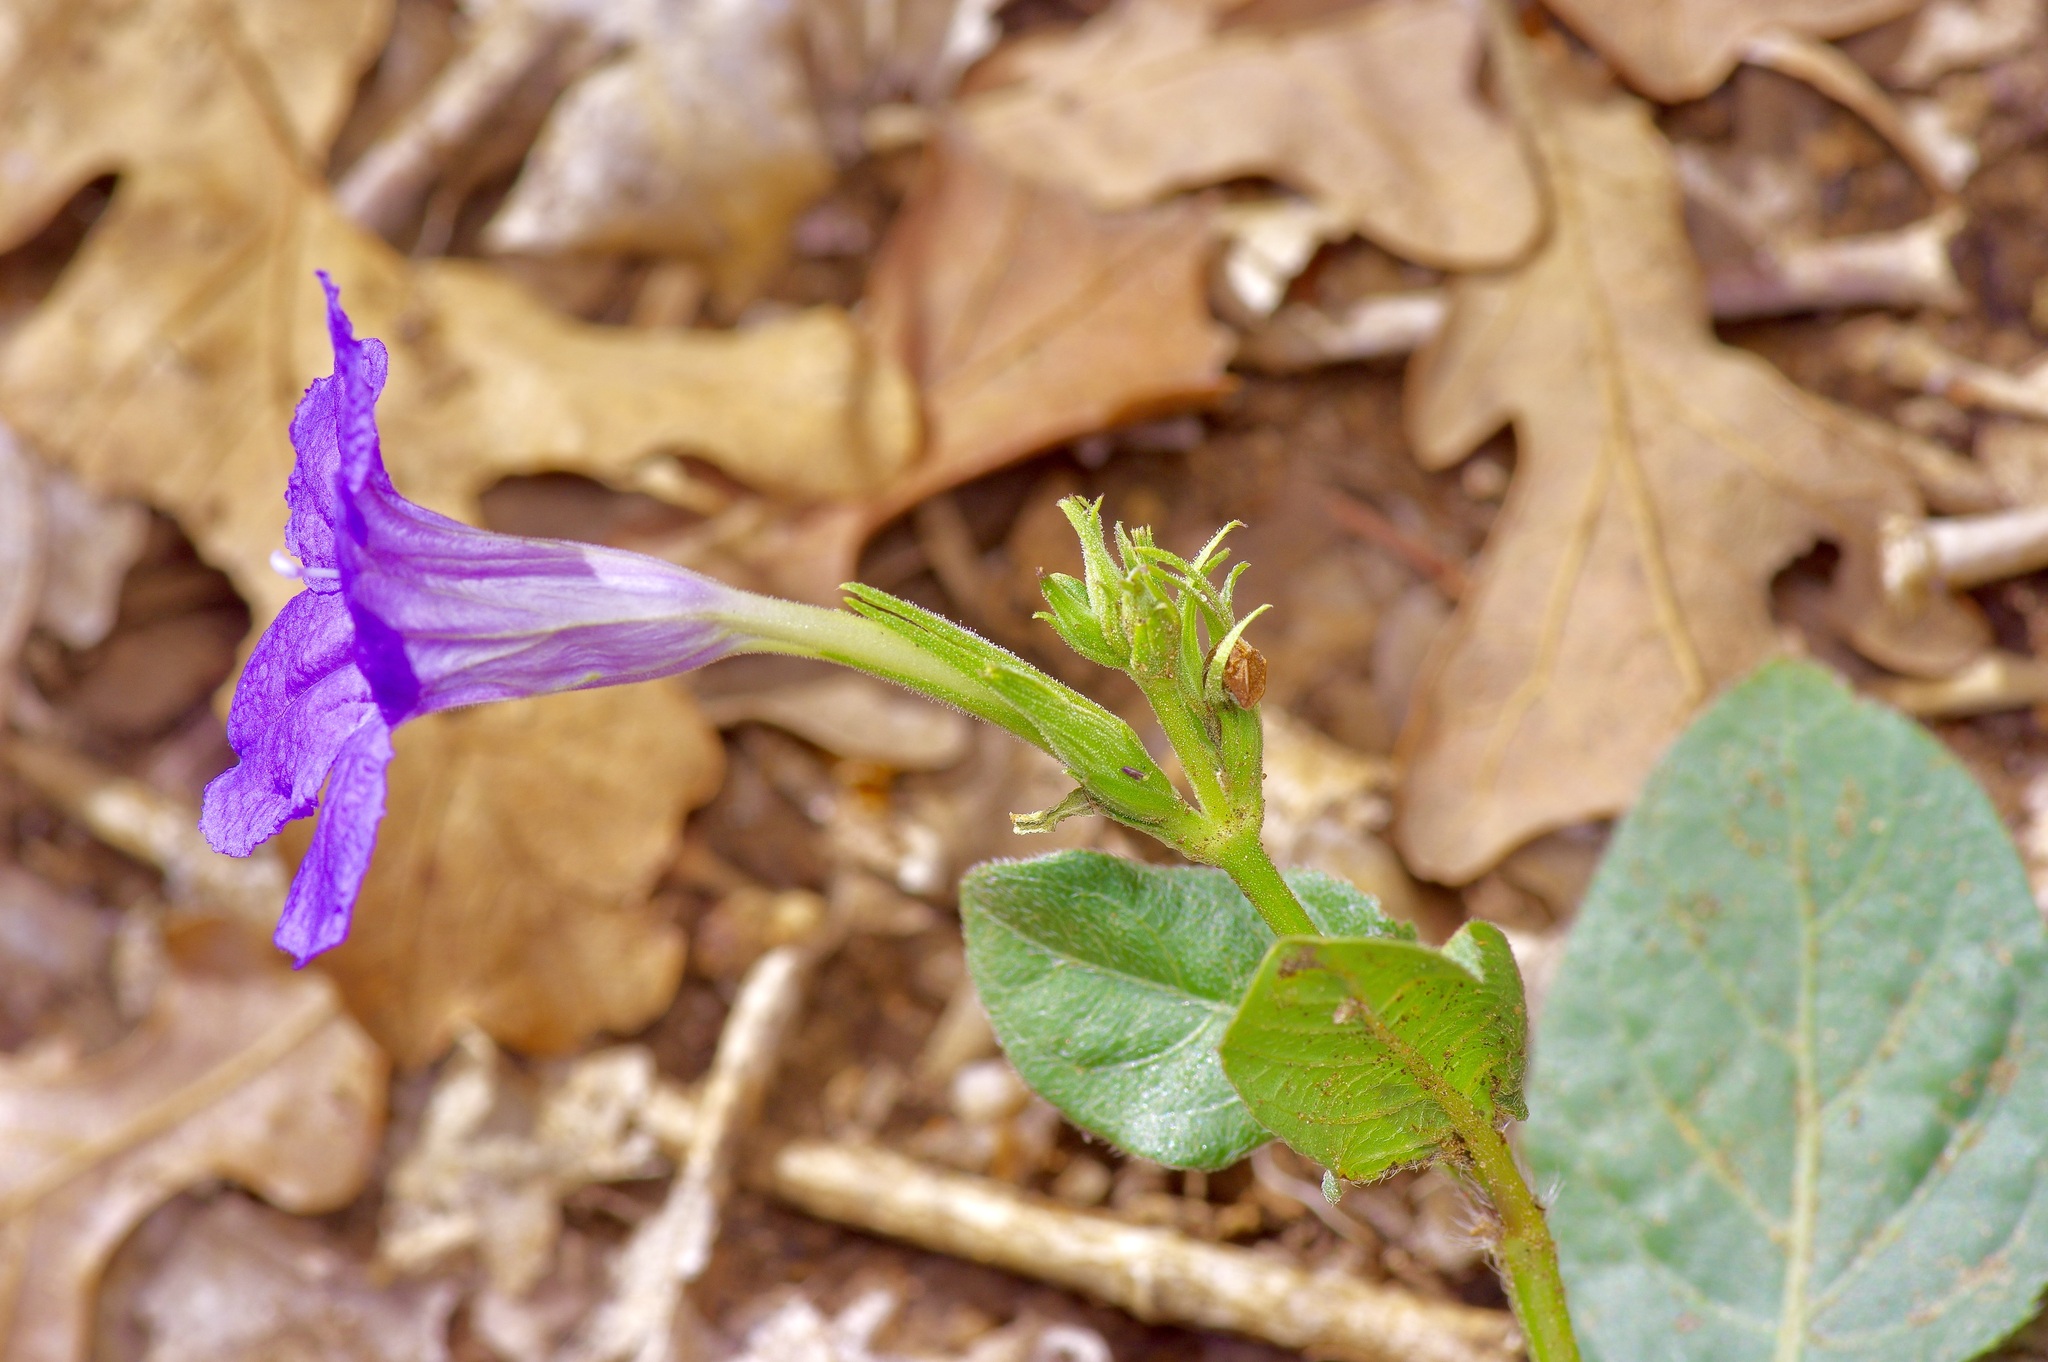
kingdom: Plantae
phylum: Tracheophyta
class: Magnoliopsida
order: Lamiales
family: Acanthaceae
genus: Ruellia
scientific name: Ruellia ciliatiflora
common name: Hairyflower wild petunia
